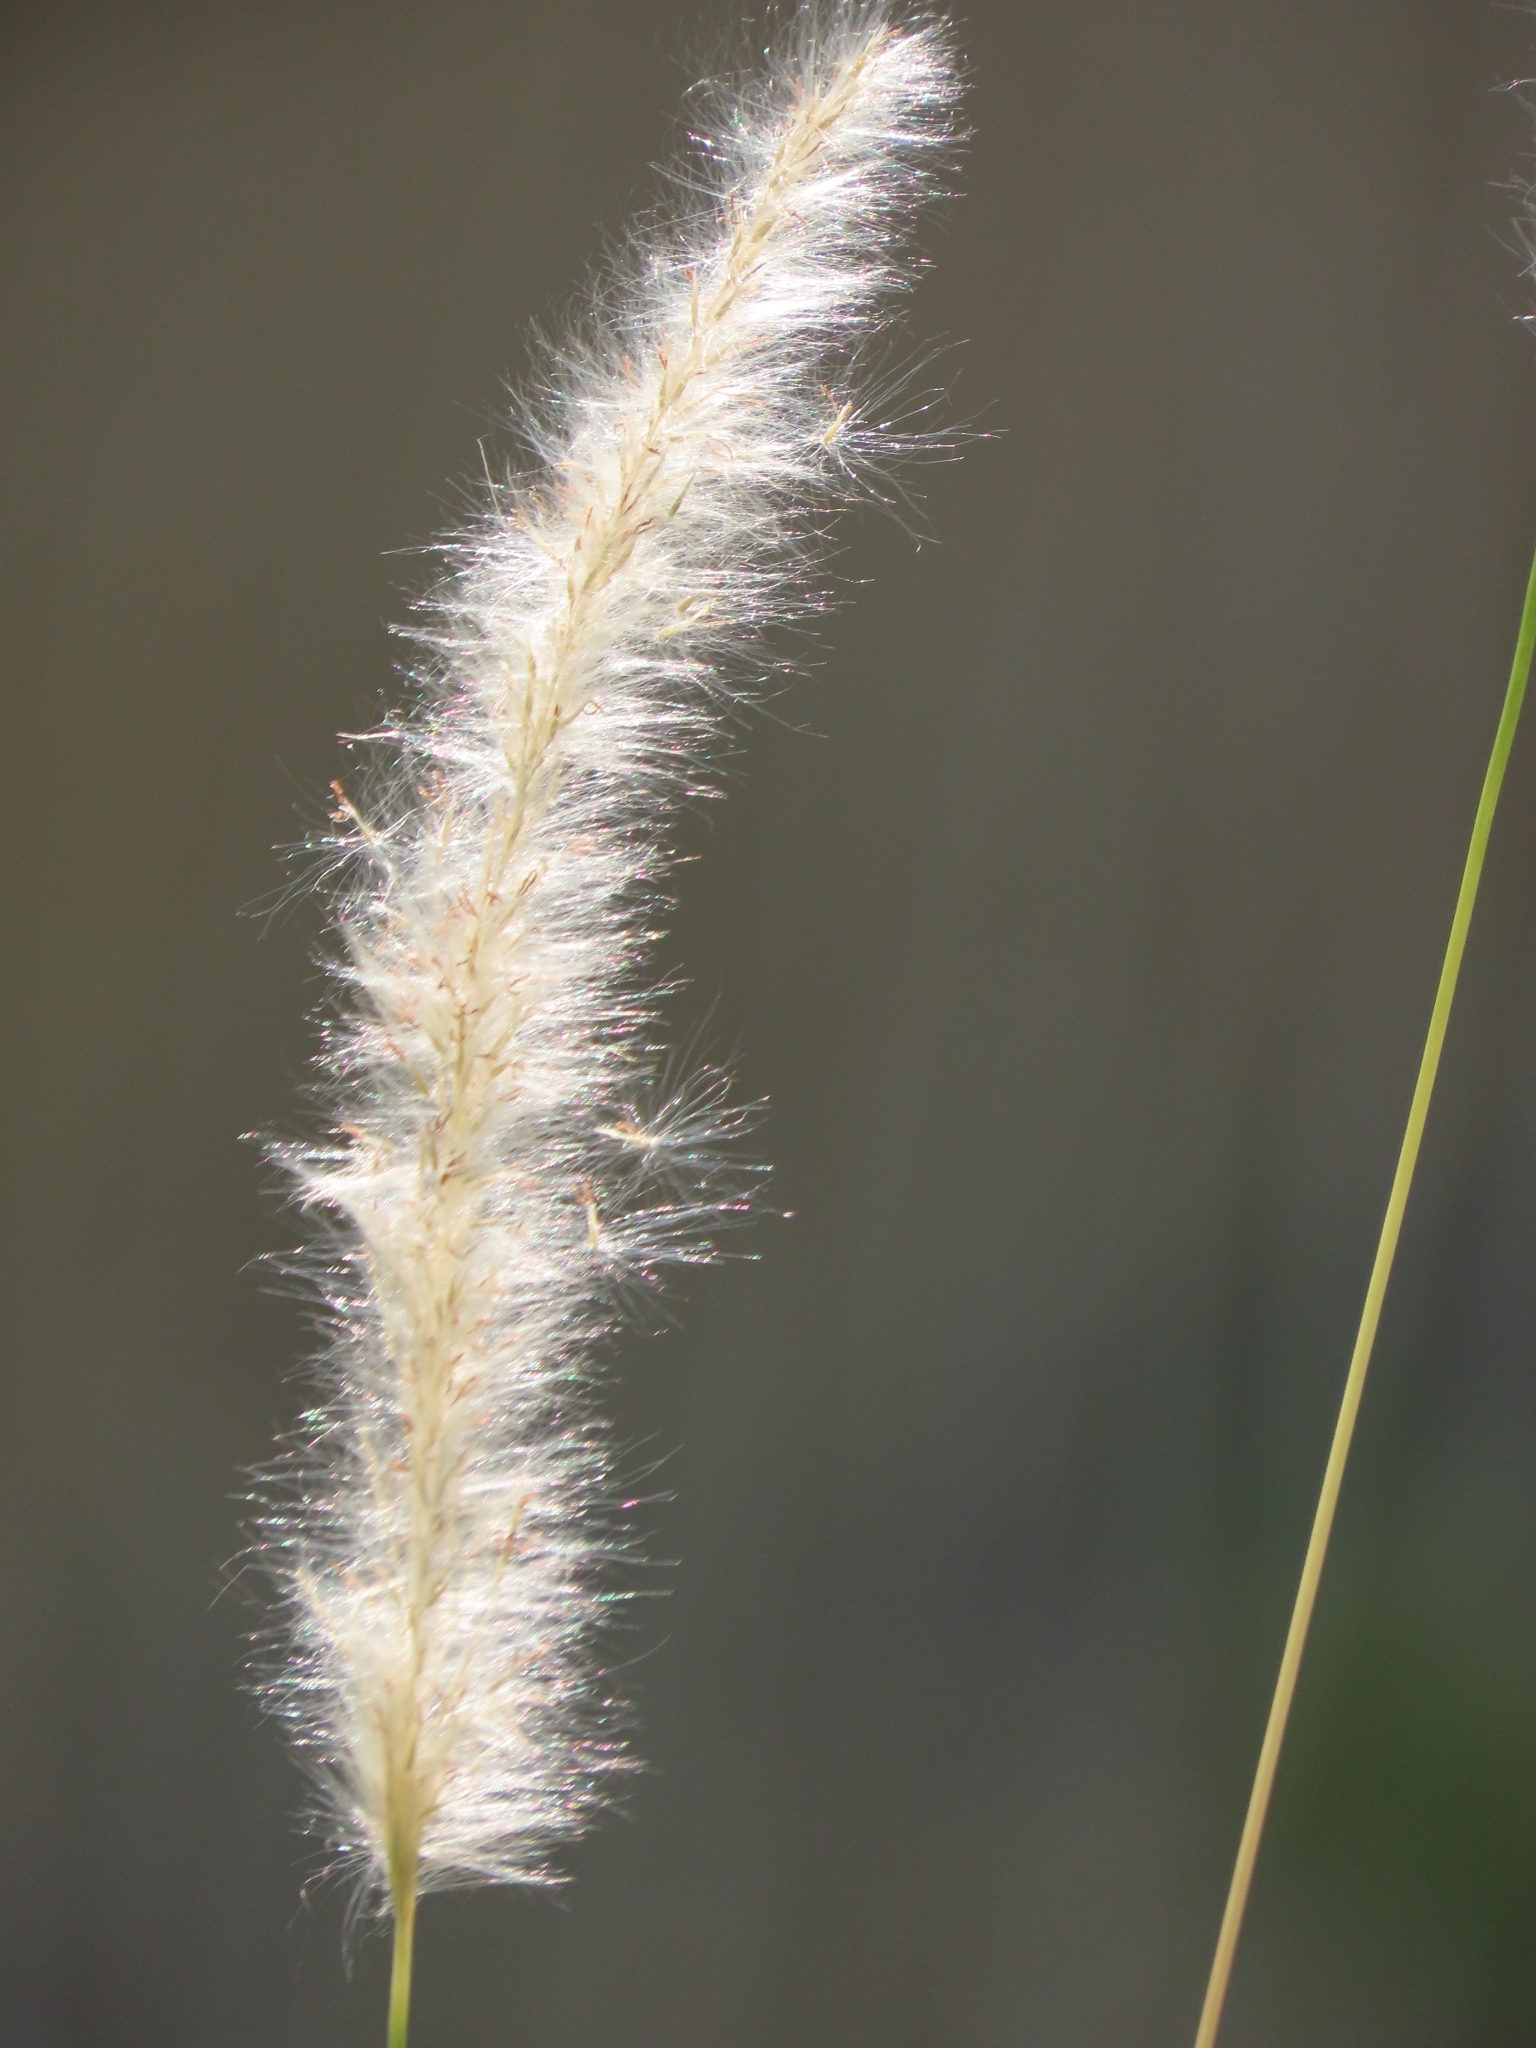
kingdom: Plantae
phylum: Tracheophyta
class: Liliopsida
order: Poales
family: Poaceae
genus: Imperata
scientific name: Imperata cylindrica
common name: Cogongrass
